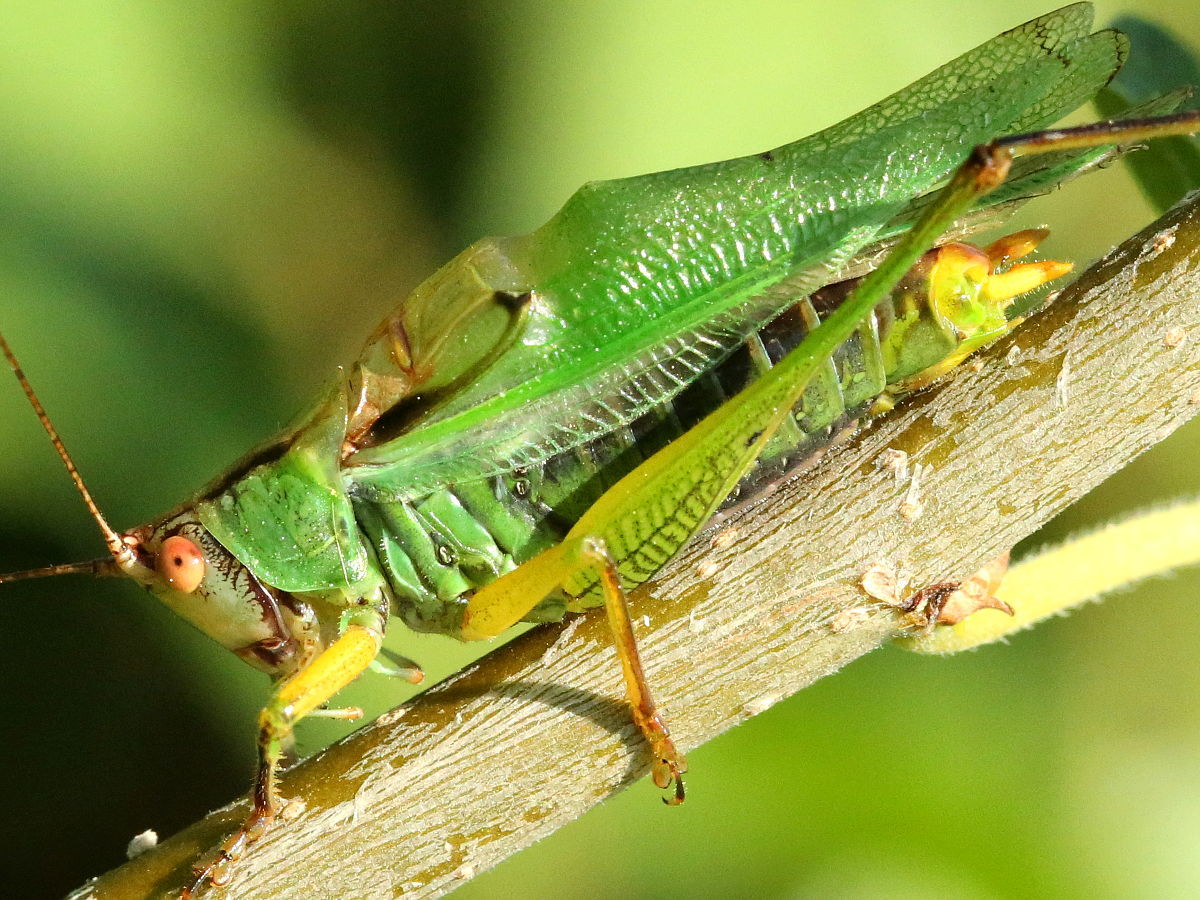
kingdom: Animalia
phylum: Arthropoda
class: Insecta
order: Orthoptera
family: Tettigoniidae
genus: Orchelimum
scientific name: Orchelimum nigripes
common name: Black-legged meadow katydid
